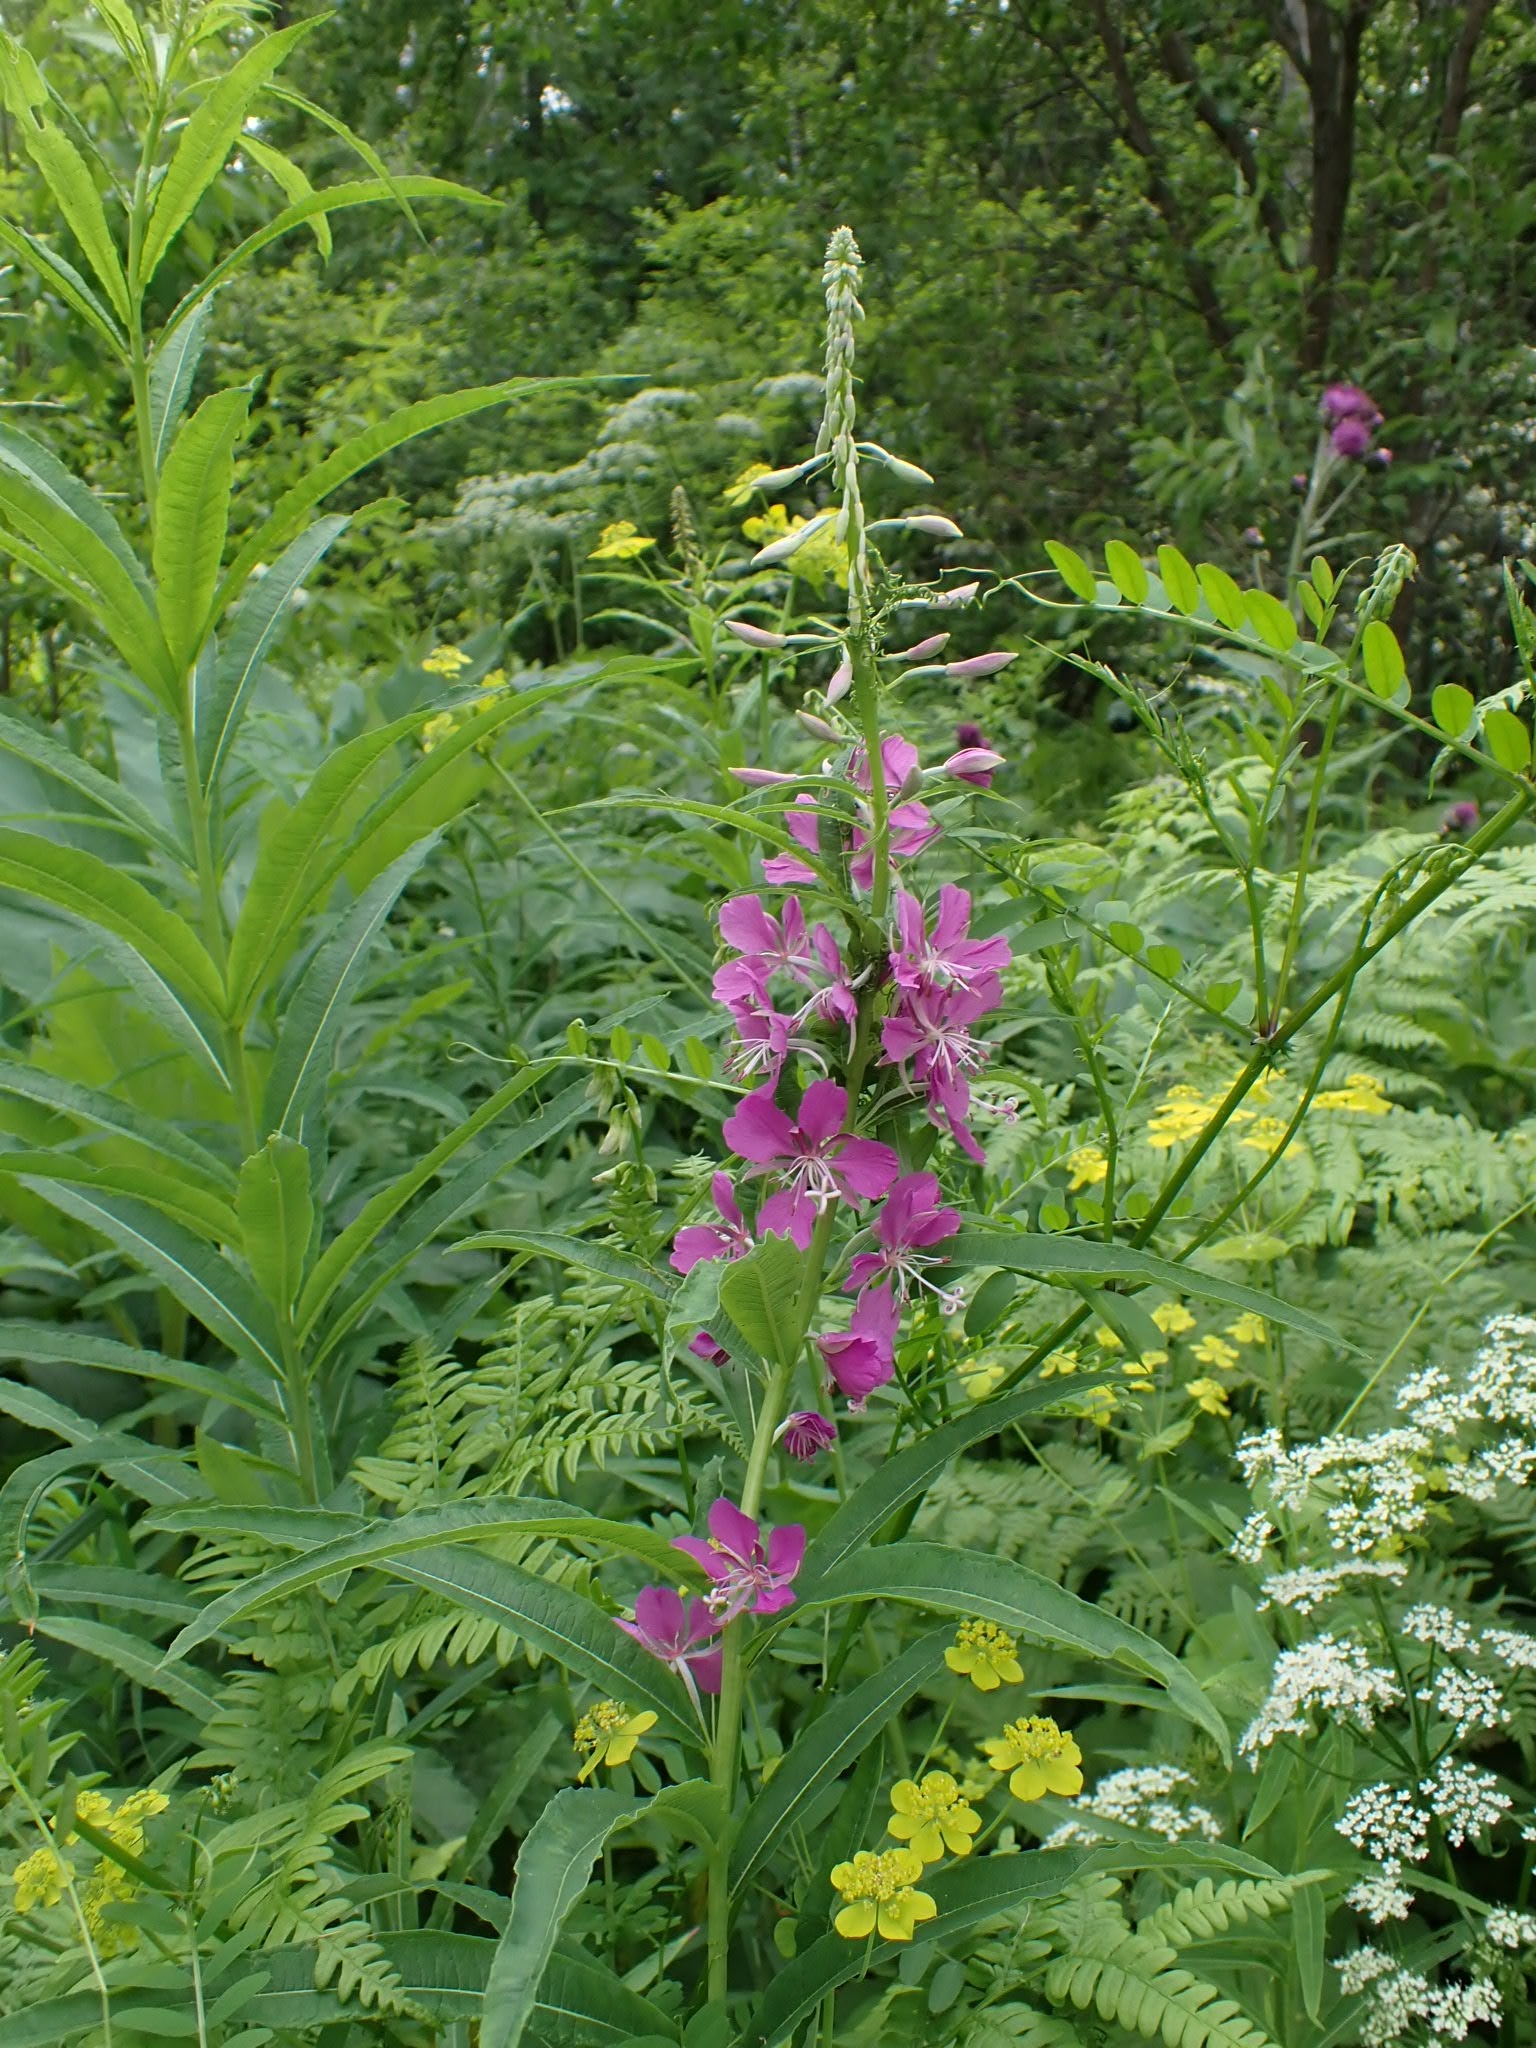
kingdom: Plantae
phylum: Tracheophyta
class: Magnoliopsida
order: Myrtales
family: Onagraceae
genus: Chamaenerion
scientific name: Chamaenerion angustifolium
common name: Fireweed
